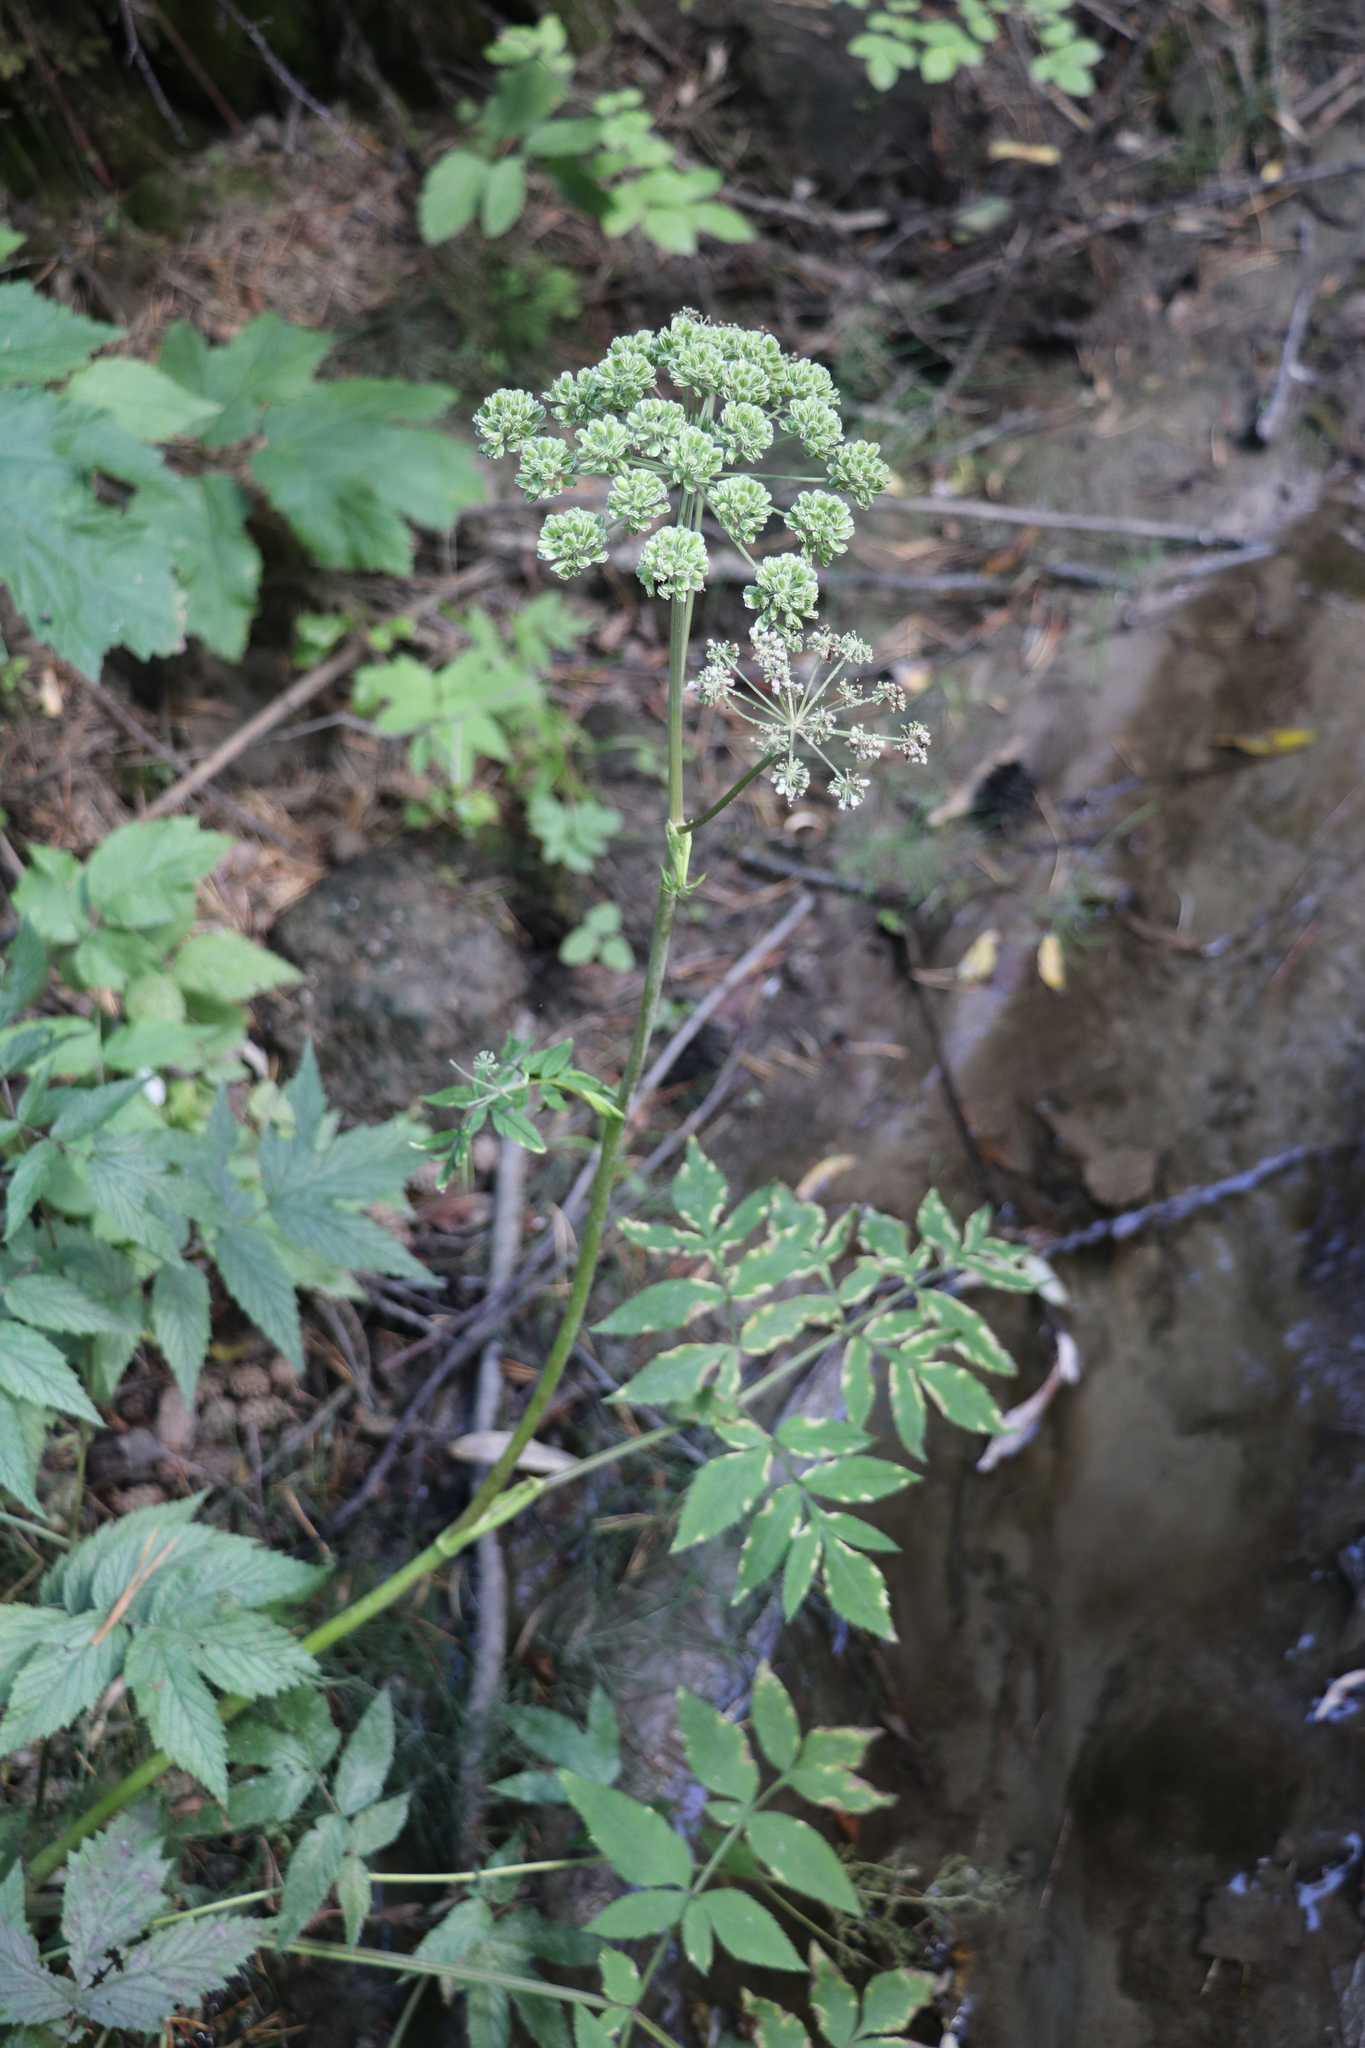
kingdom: Plantae
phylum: Tracheophyta
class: Magnoliopsida
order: Apiales
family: Apiaceae
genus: Angelica
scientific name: Angelica sylvestris
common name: Wild angelica
